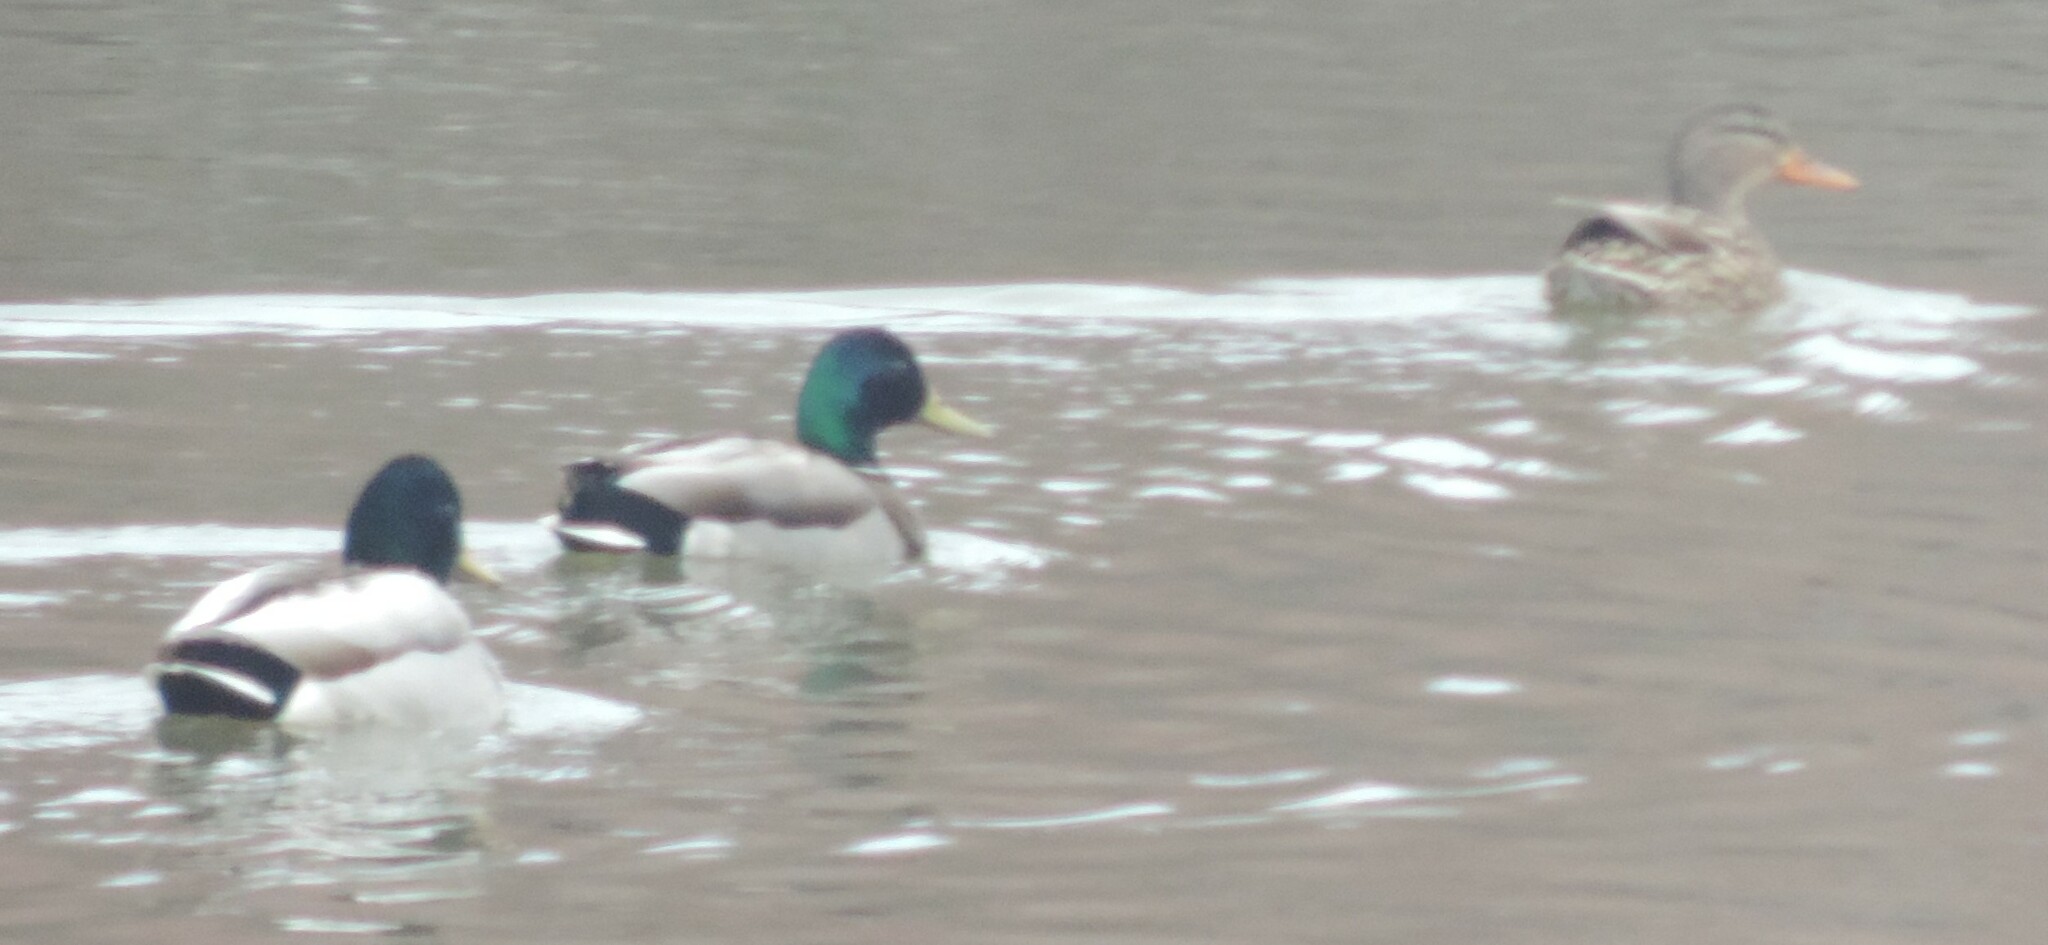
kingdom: Animalia
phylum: Chordata
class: Aves
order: Anseriformes
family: Anatidae
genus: Anas
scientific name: Anas platyrhynchos
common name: Mallard
